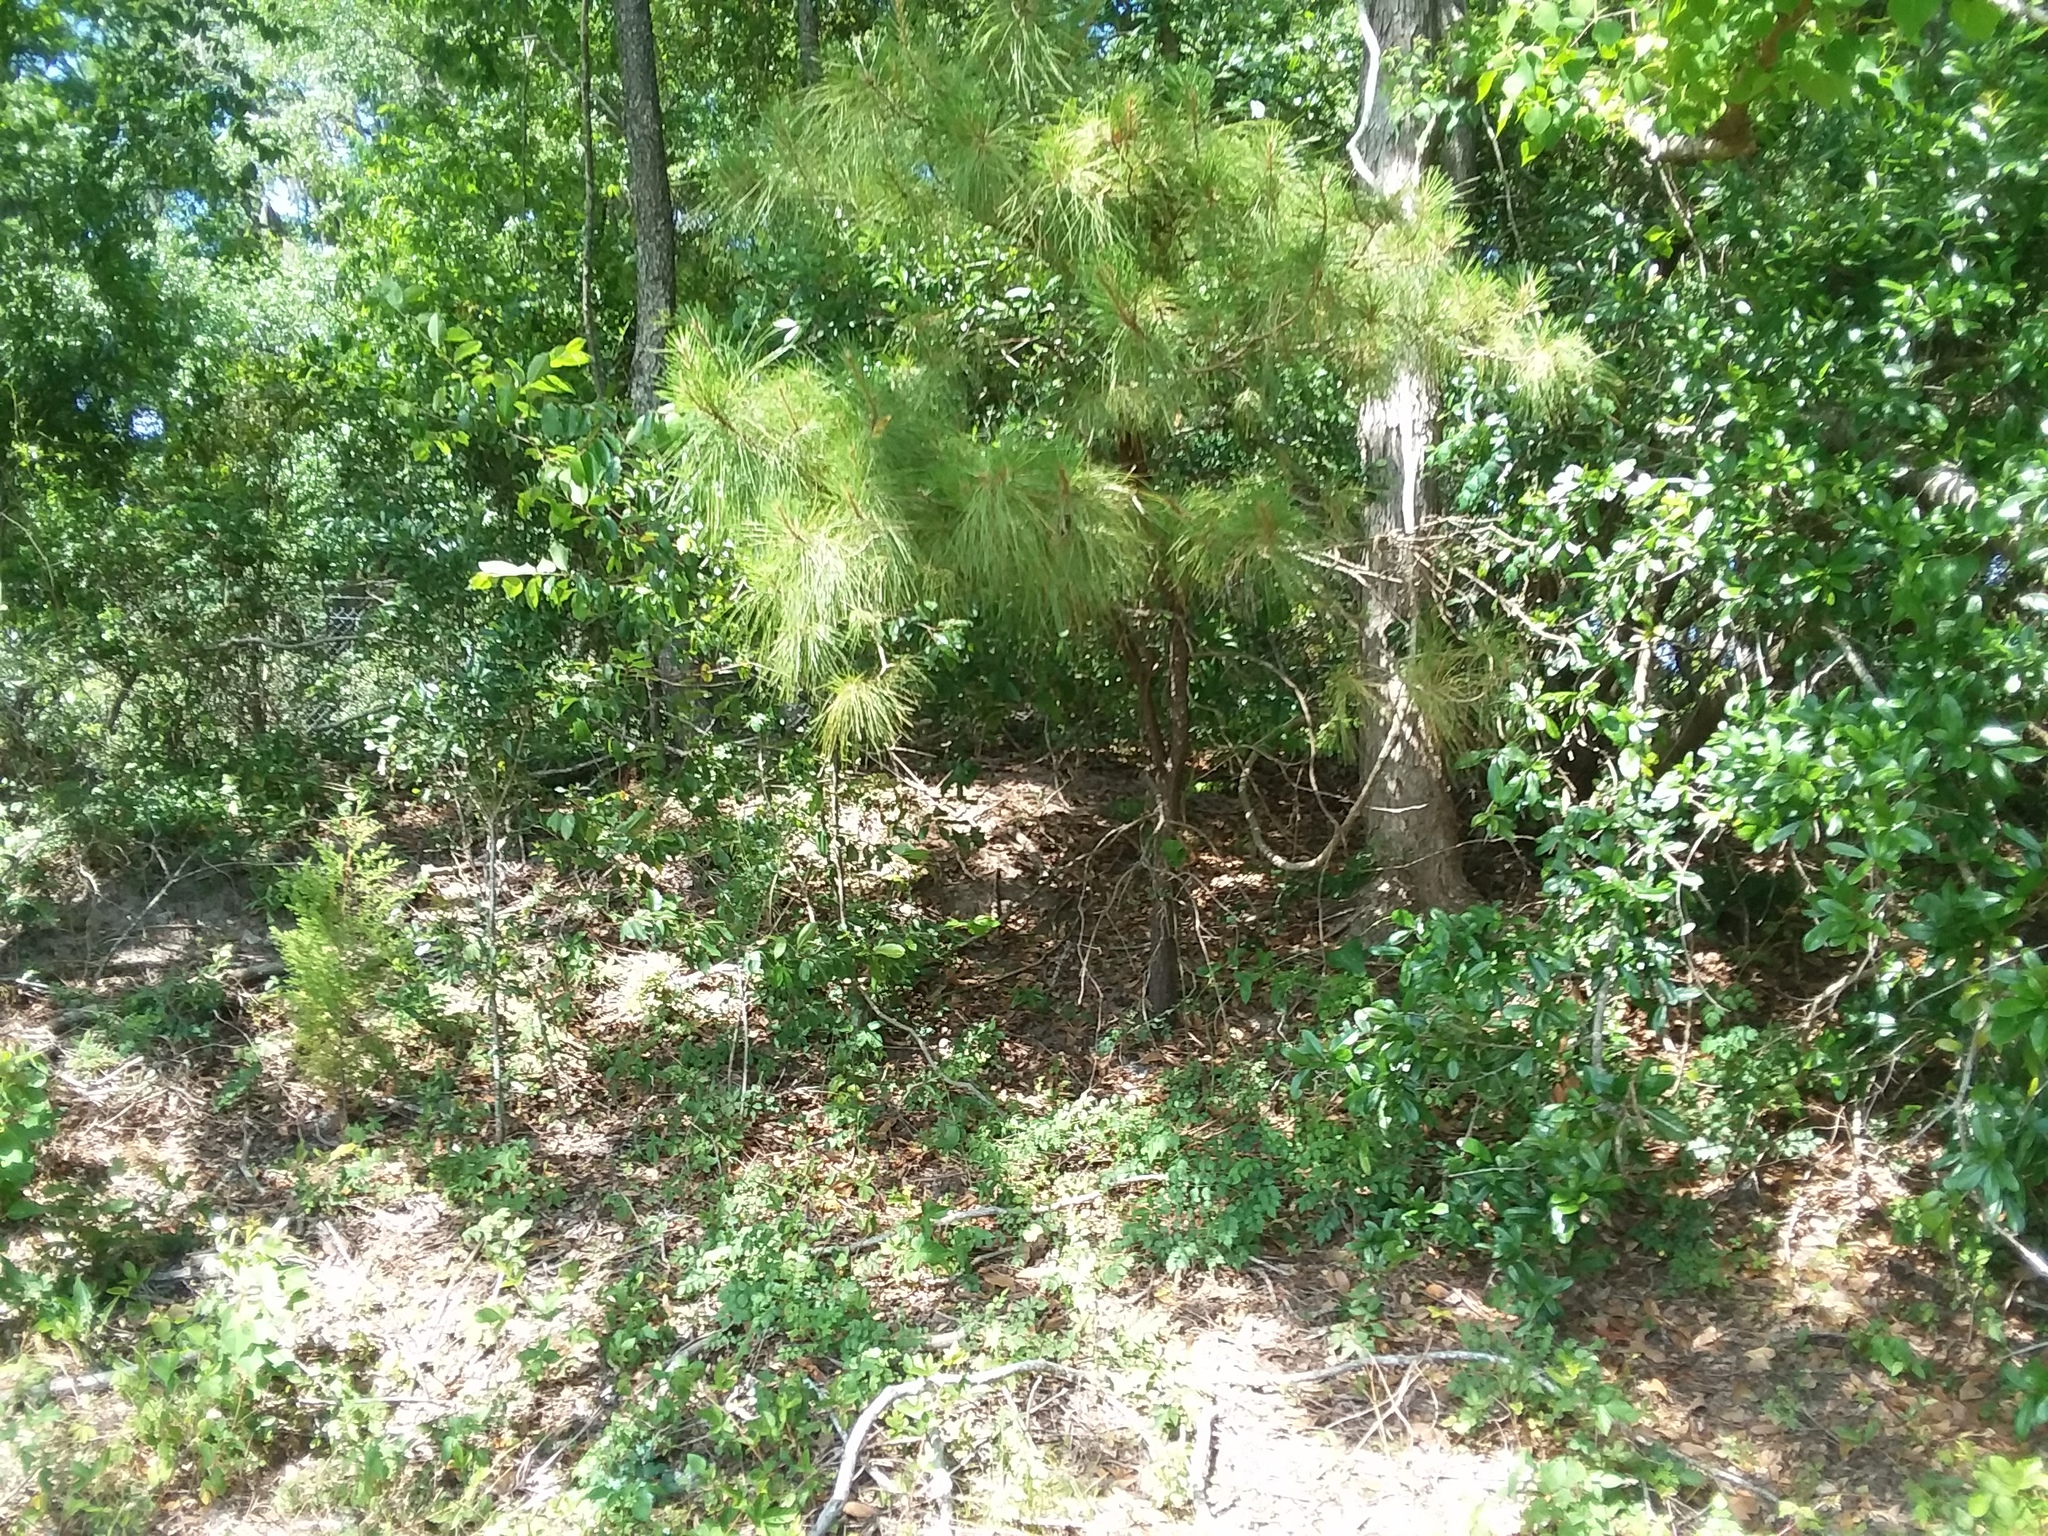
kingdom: Plantae
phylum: Tracheophyta
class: Pinopsida
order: Pinales
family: Pinaceae
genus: Pinus
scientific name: Pinus
